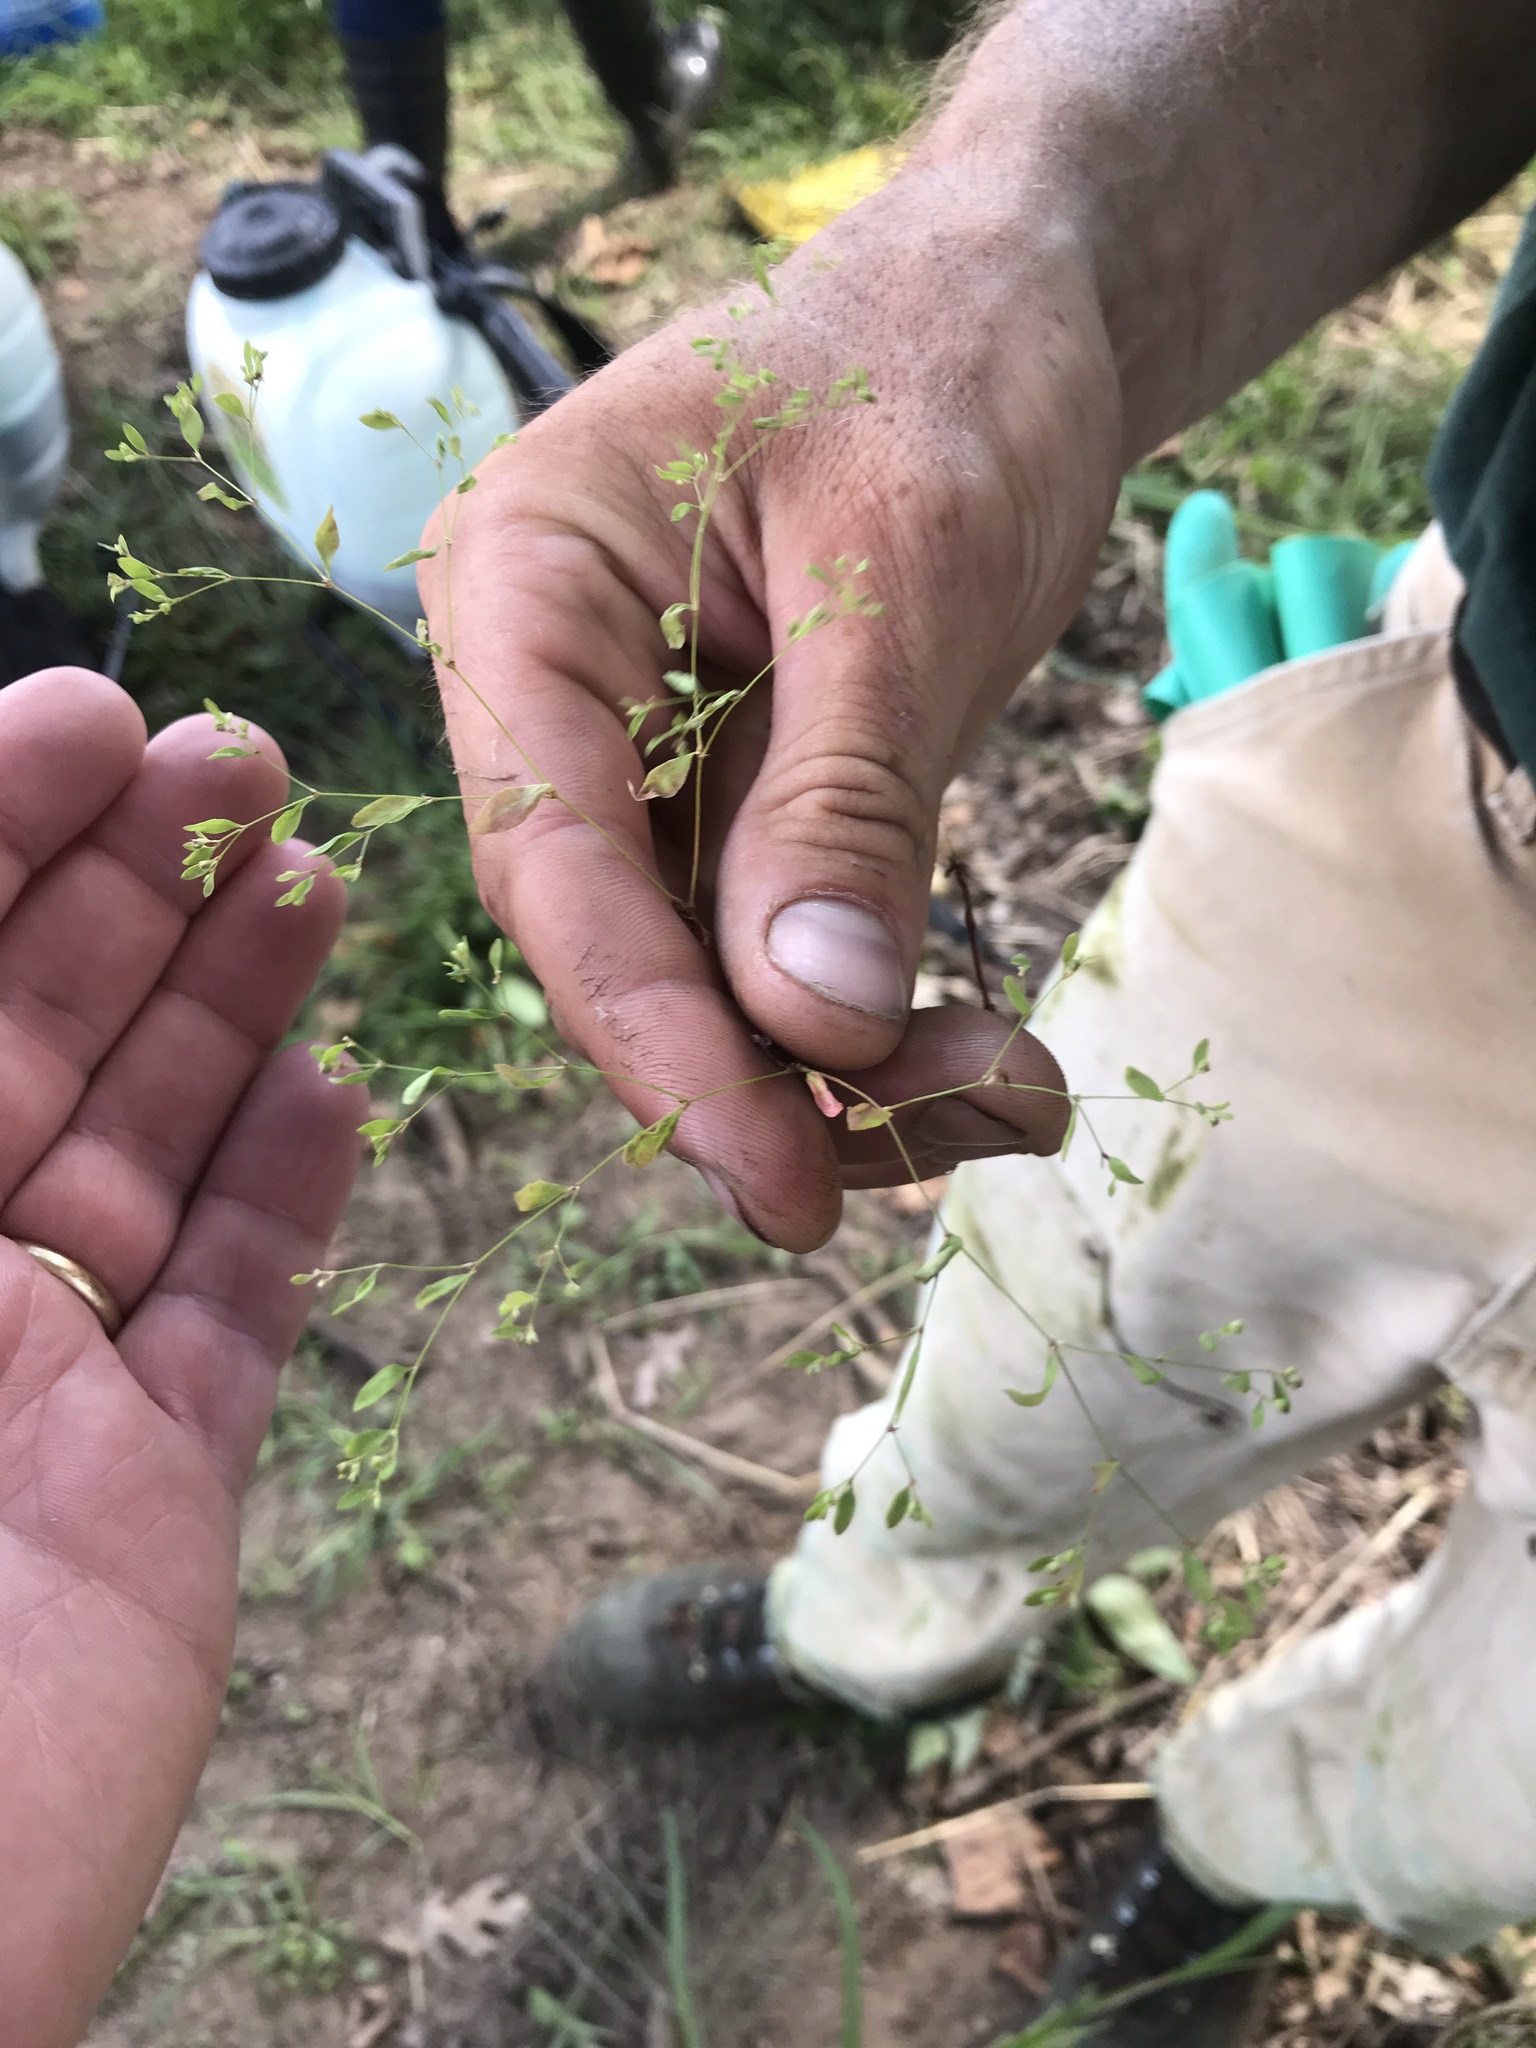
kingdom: Plantae
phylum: Tracheophyta
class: Magnoliopsida
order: Caryophyllales
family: Caryophyllaceae
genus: Paronychia
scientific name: Paronychia canadensis
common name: Canada forked nailwort
